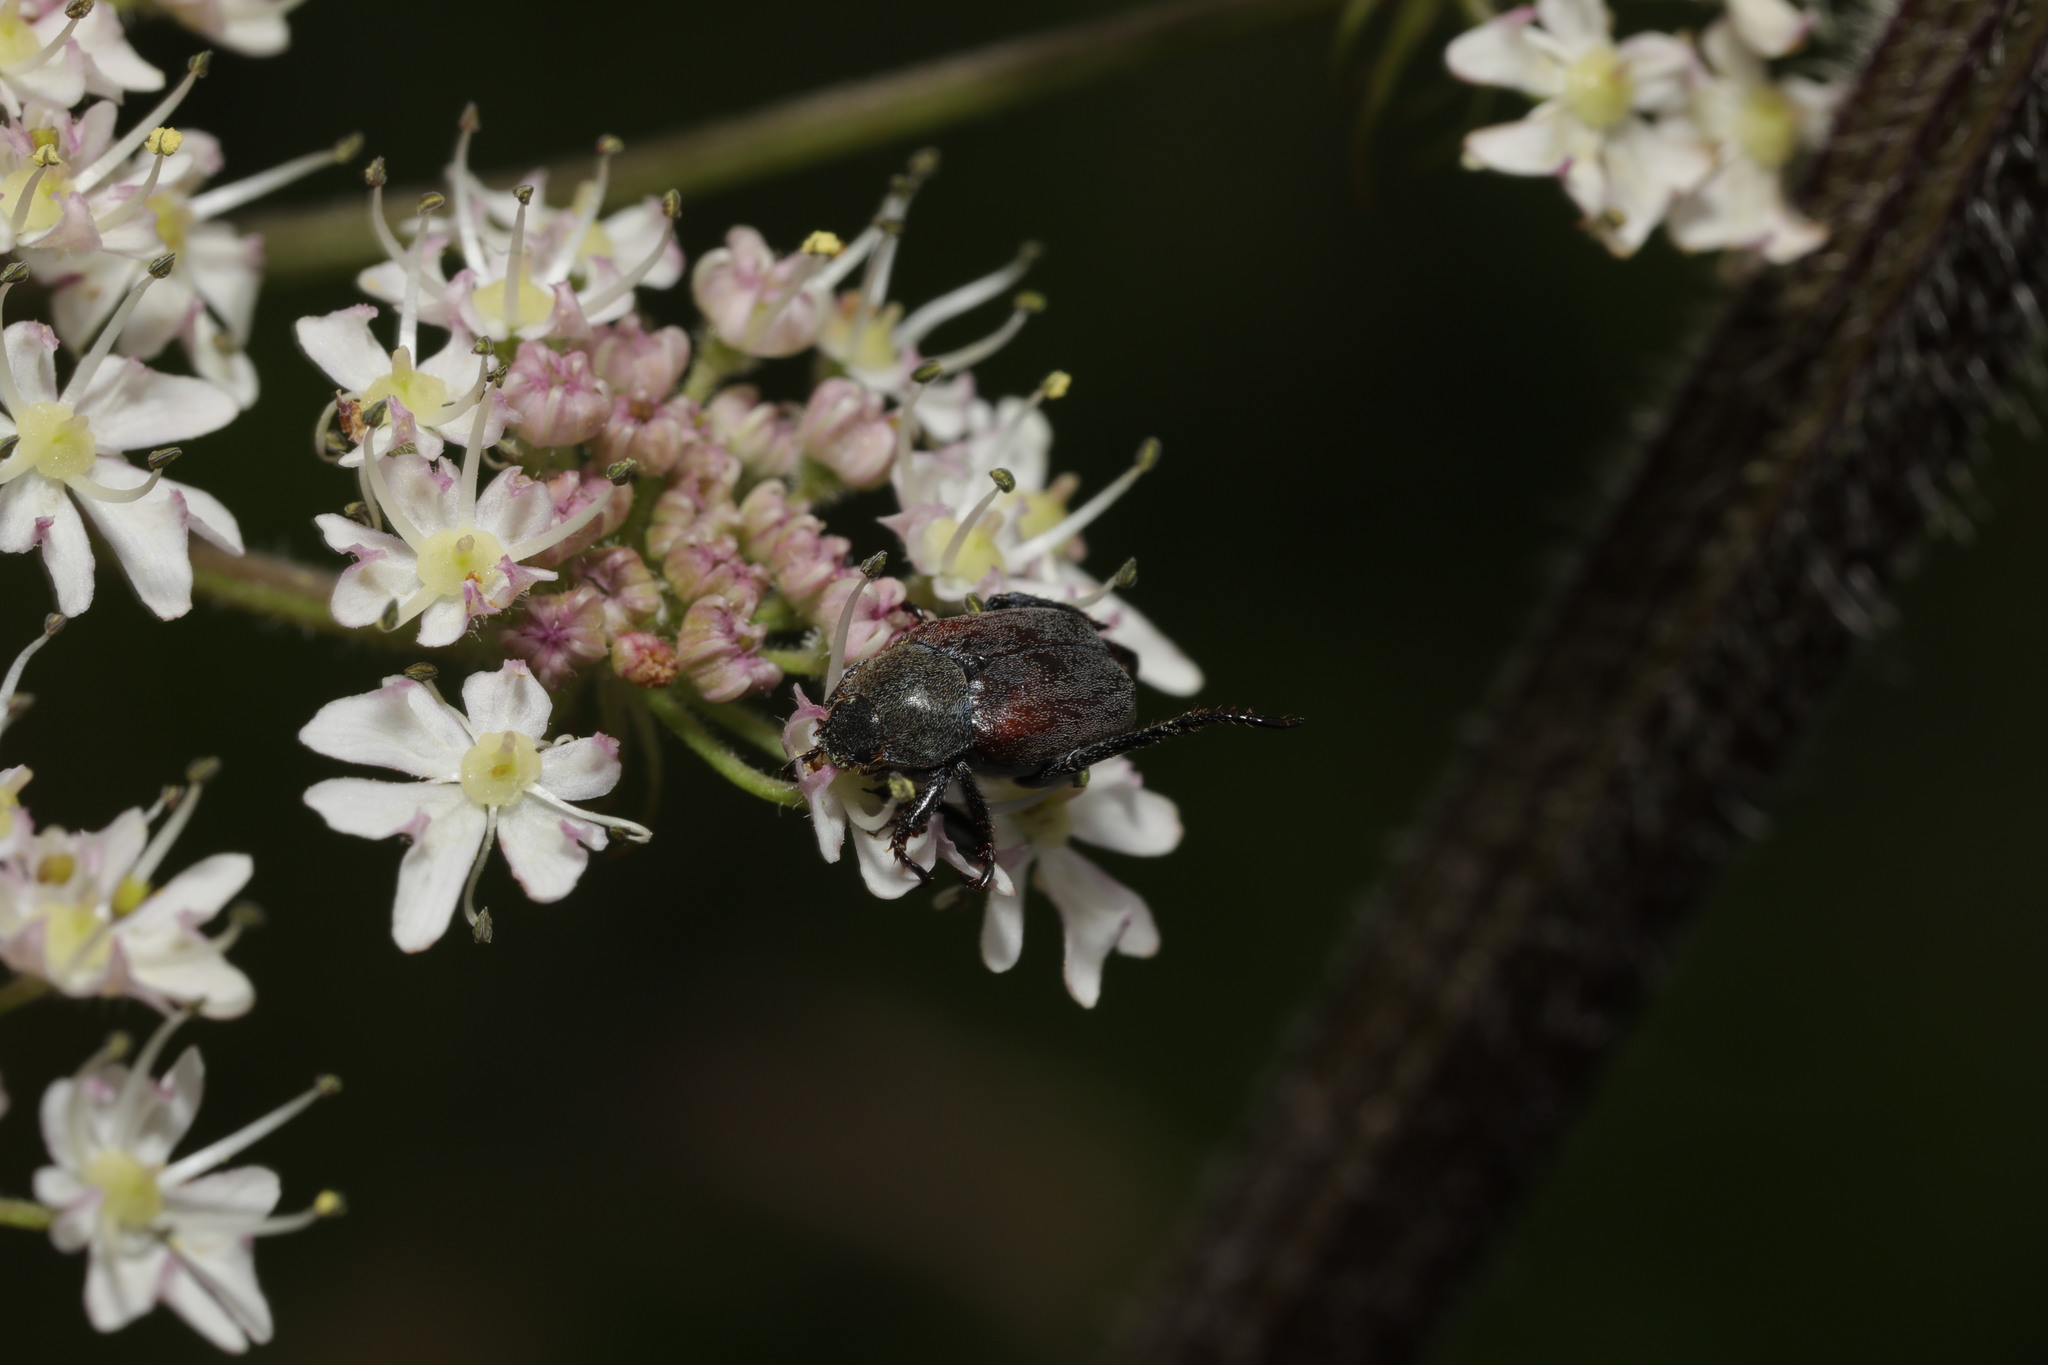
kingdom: Animalia
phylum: Arthropoda
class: Insecta
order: Coleoptera
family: Scarabaeidae
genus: Hoplia
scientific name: Hoplia philanthus
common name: Welsh chafer
